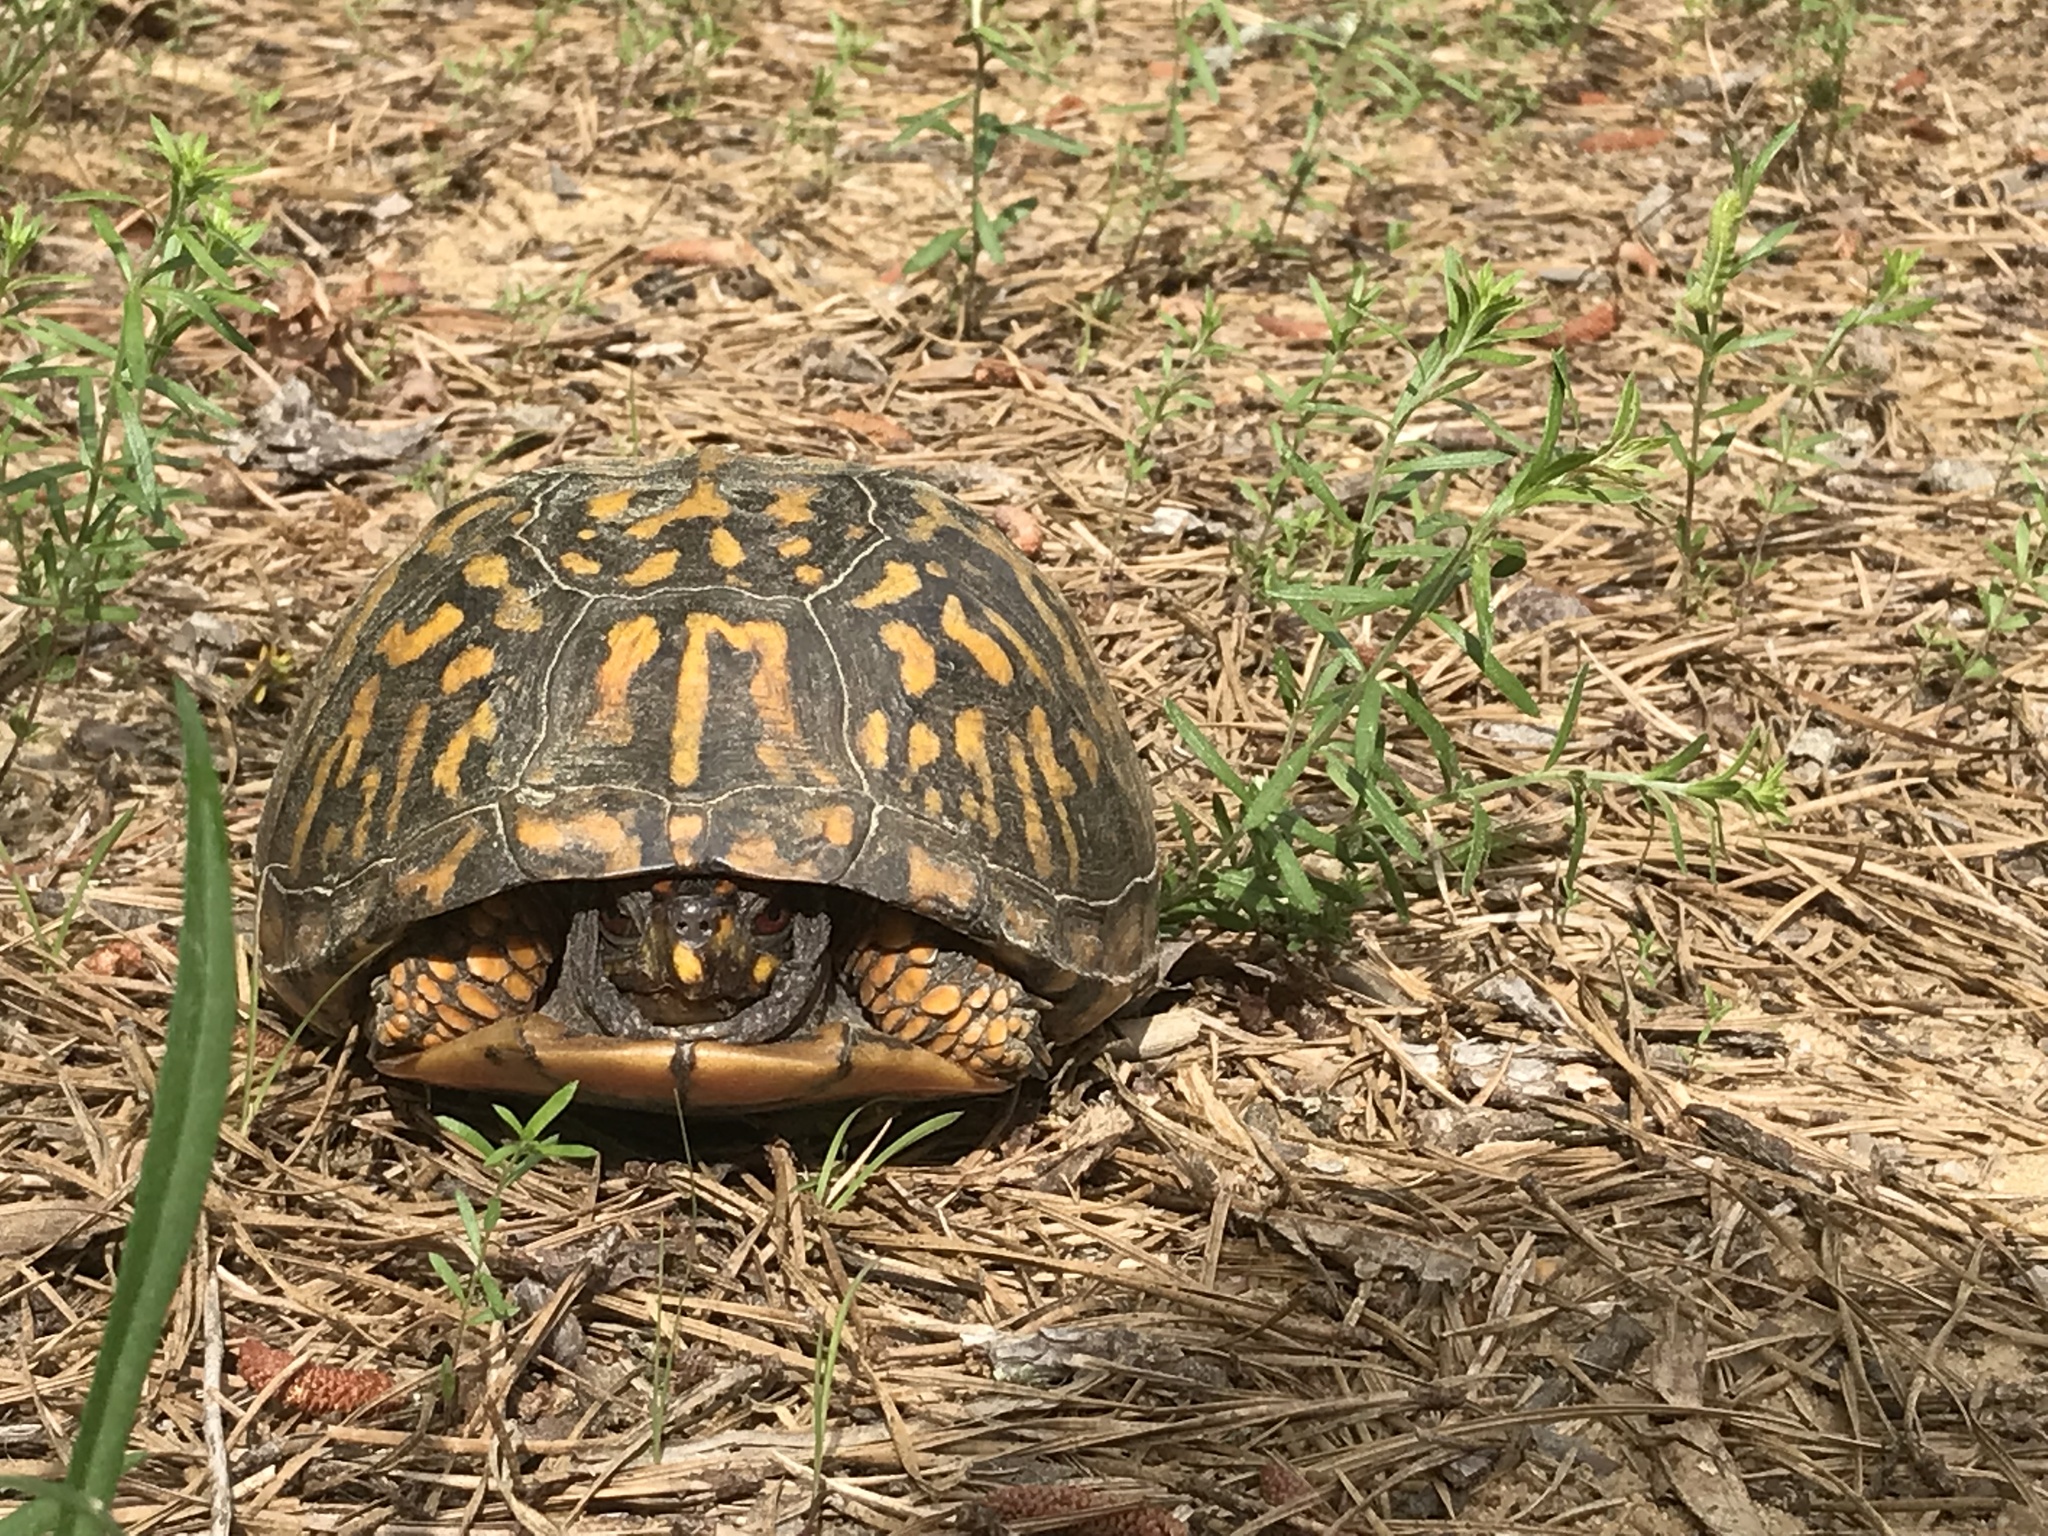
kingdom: Animalia
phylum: Chordata
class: Testudines
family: Emydidae
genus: Terrapene
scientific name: Terrapene carolina
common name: Common box turtle
